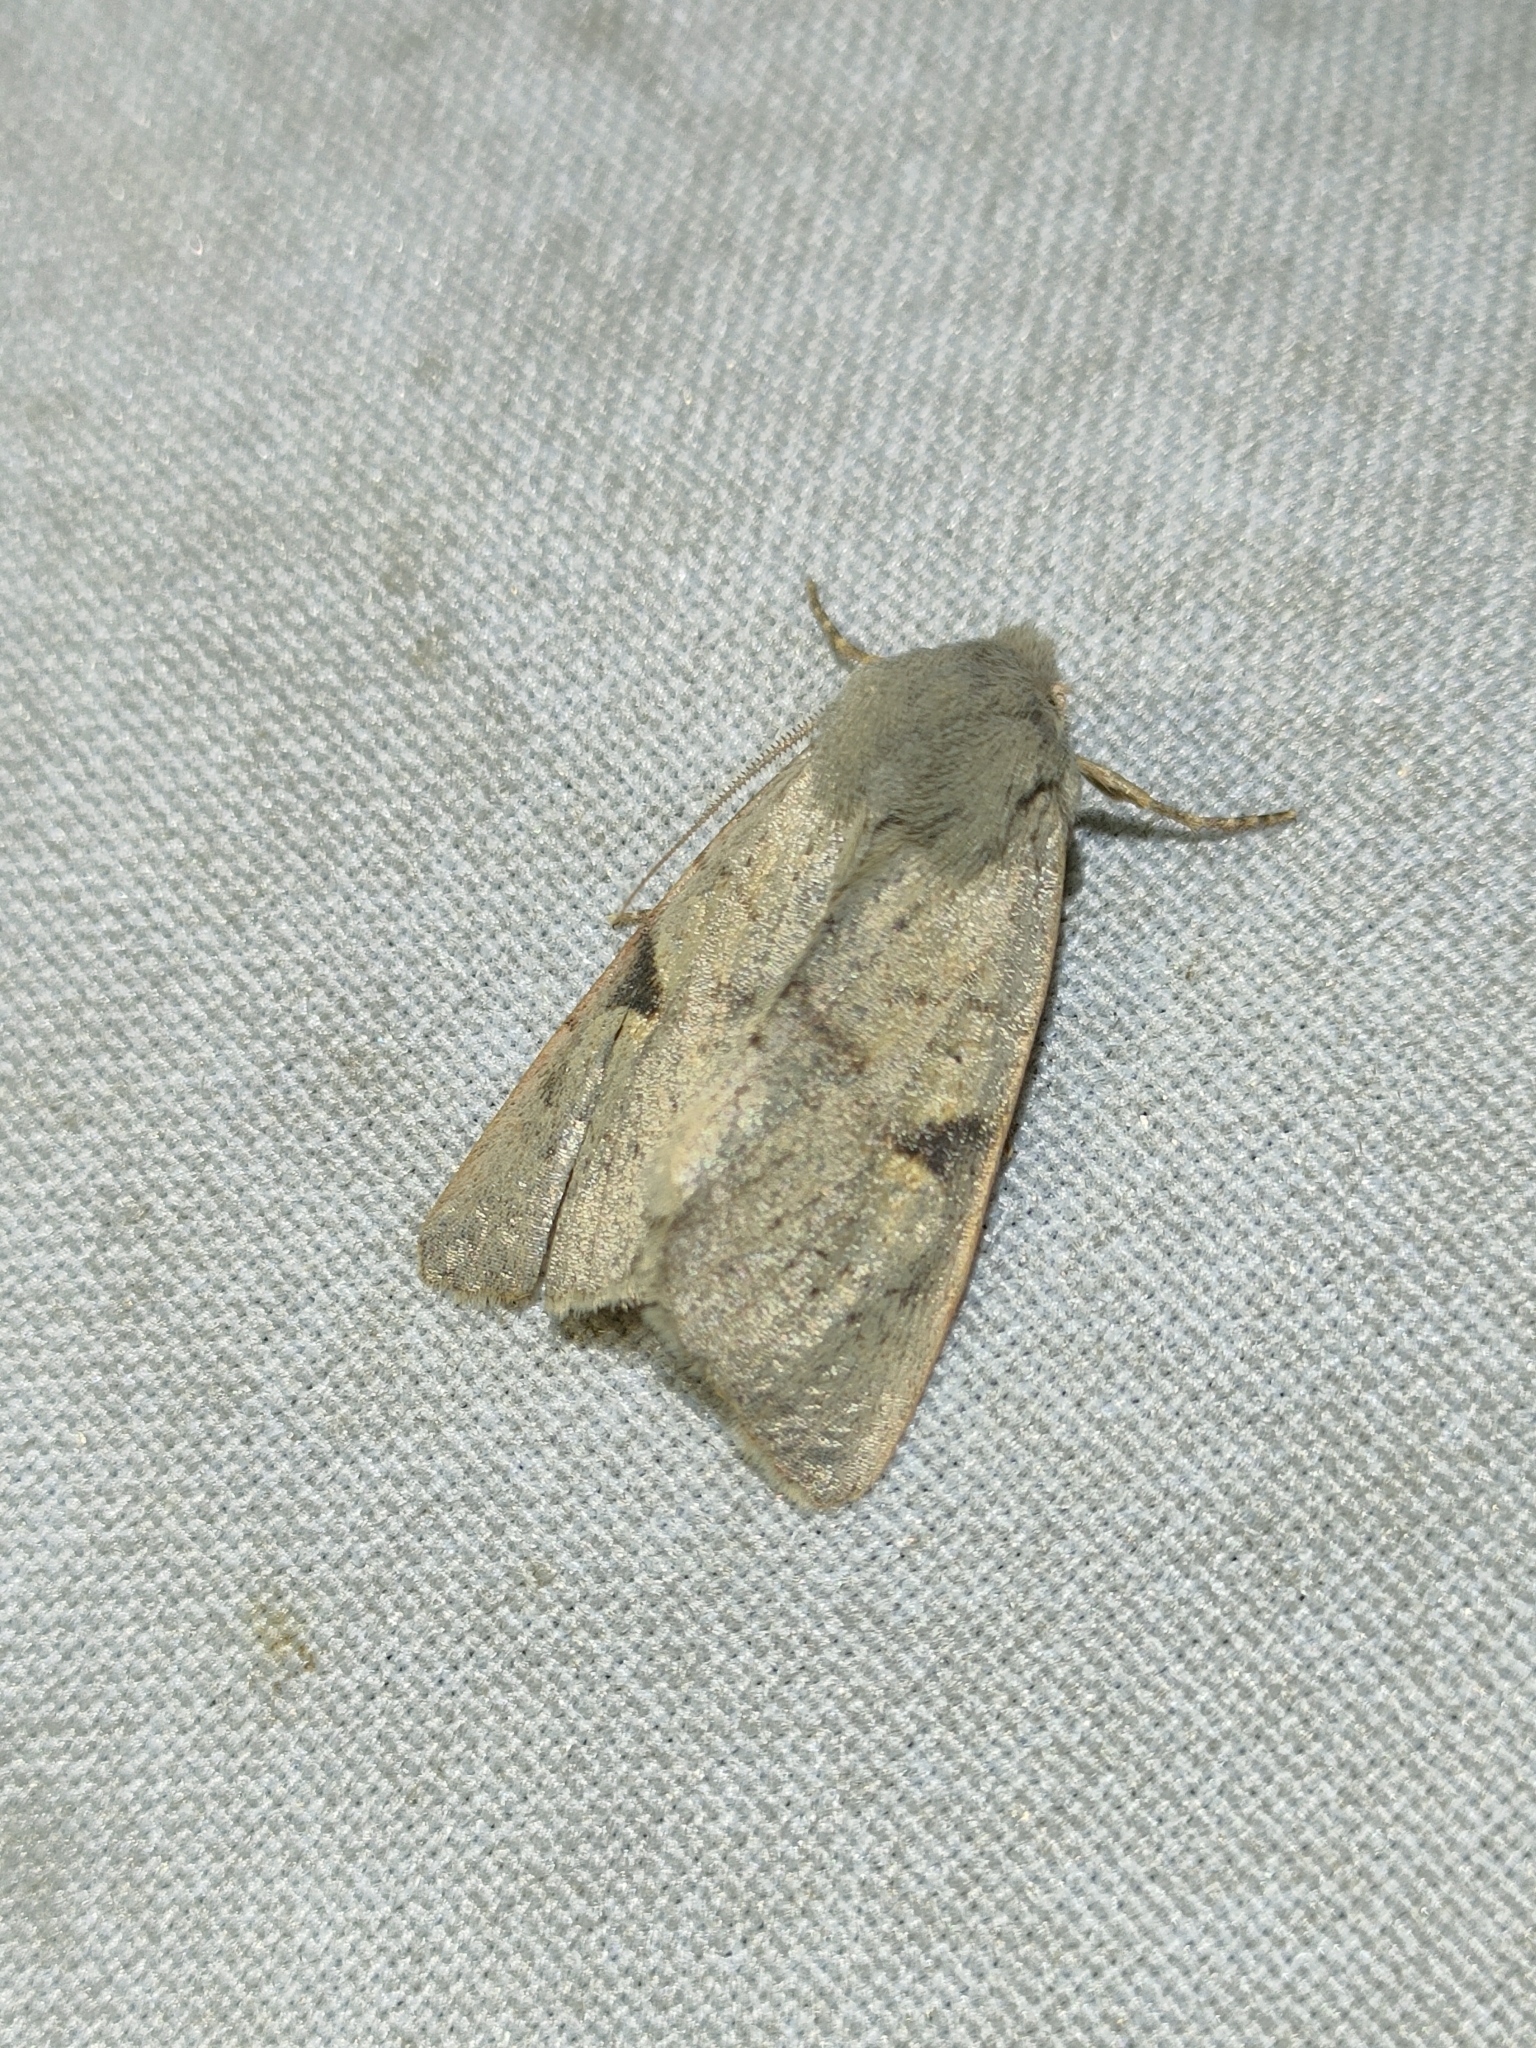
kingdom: Animalia
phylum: Arthropoda
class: Insecta
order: Lepidoptera
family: Noctuidae
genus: Ammopolia
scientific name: Ammopolia witzenmanni
